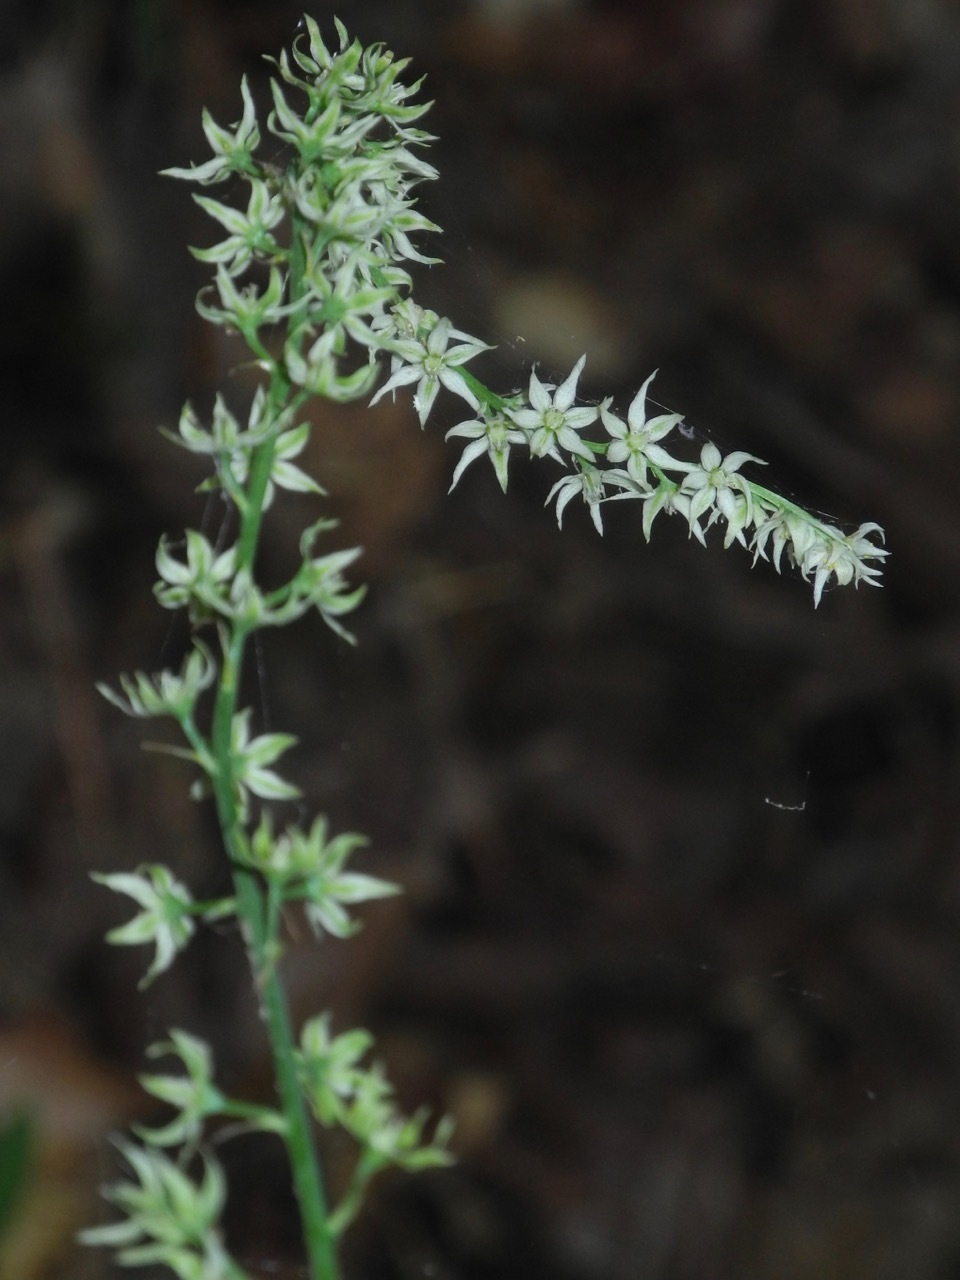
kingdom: Plantae
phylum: Tracheophyta
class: Liliopsida
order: Liliales
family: Melanthiaceae
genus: Stenanthium
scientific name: Stenanthium gramineum
